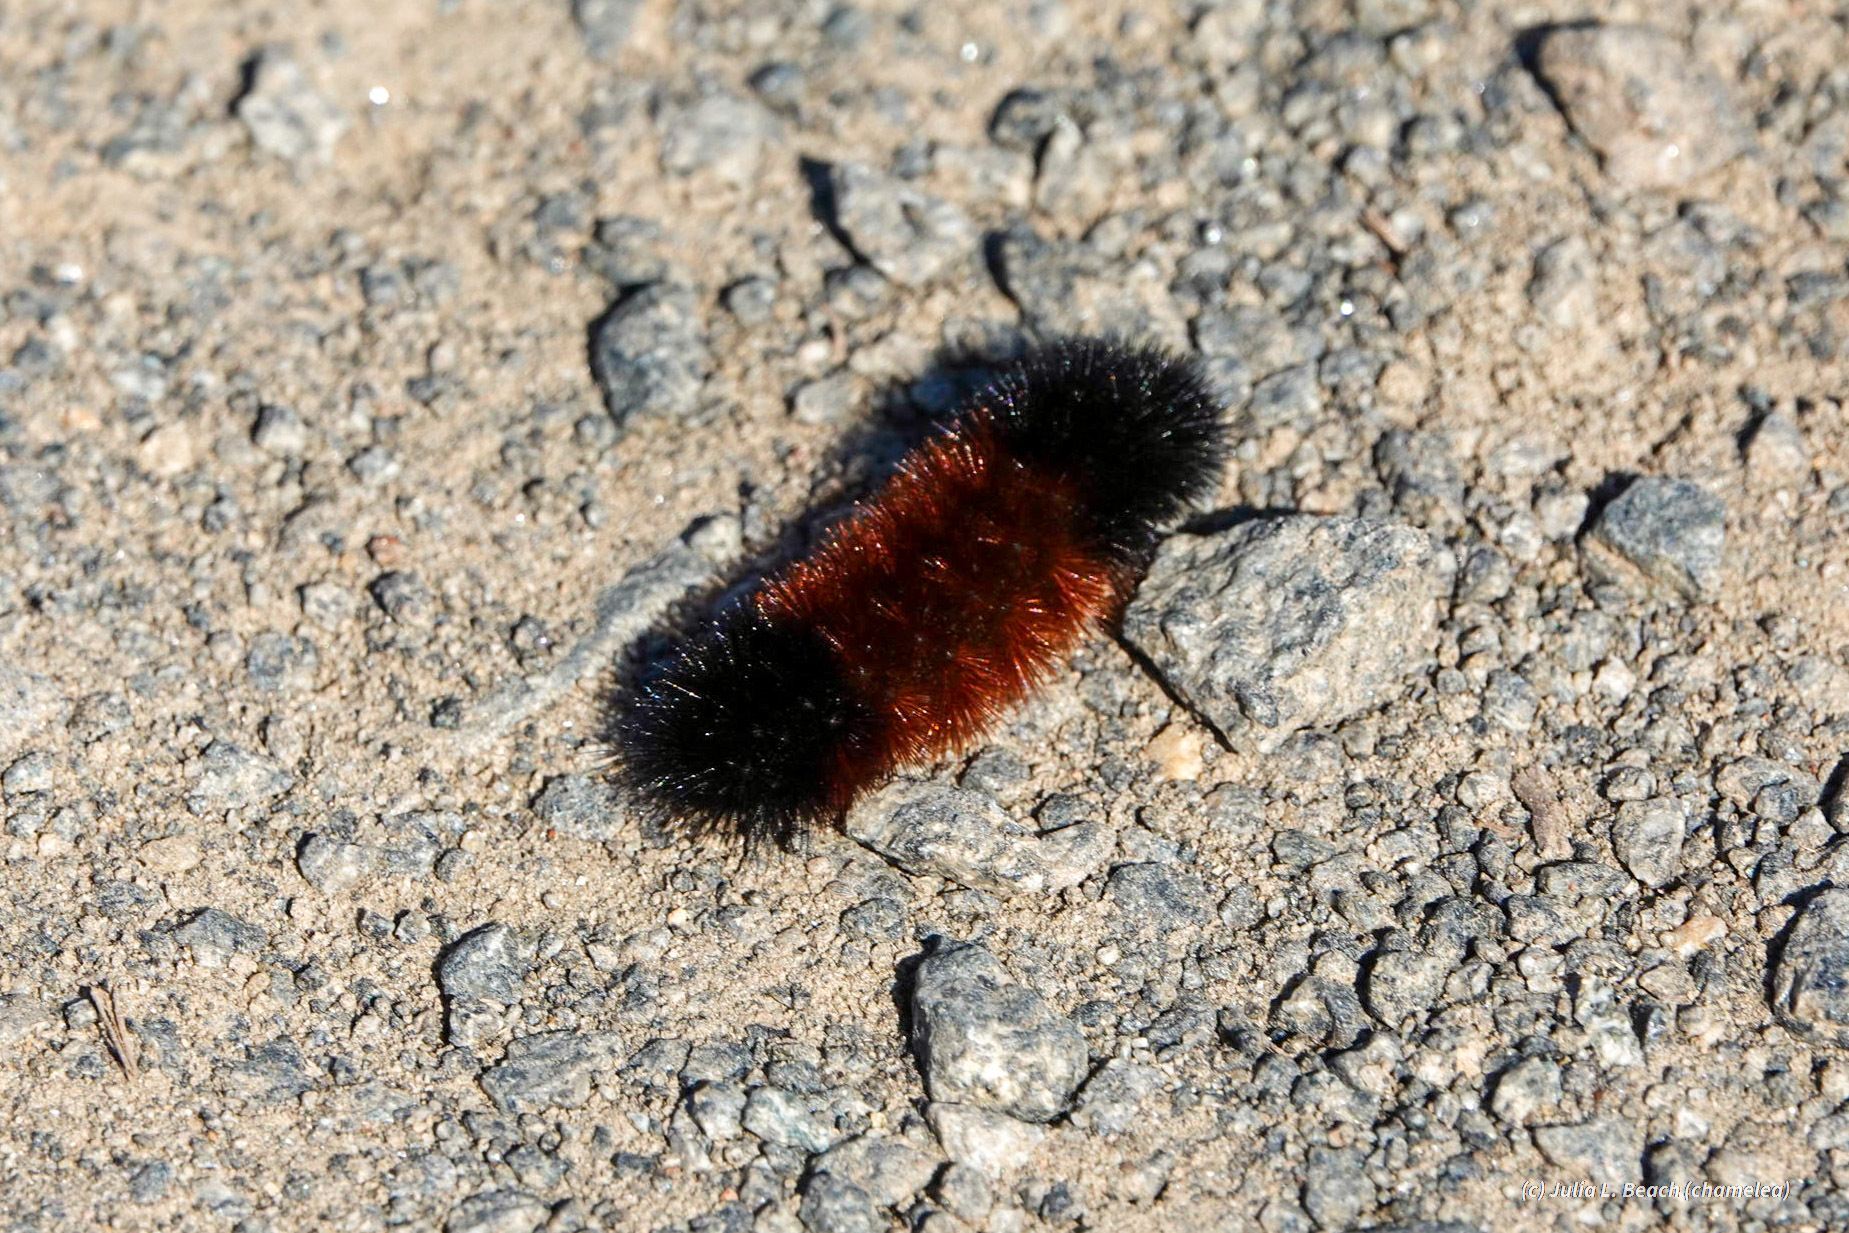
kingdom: Animalia
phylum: Arthropoda
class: Insecta
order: Lepidoptera
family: Erebidae
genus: Pyrrharctia
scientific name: Pyrrharctia isabella
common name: Isabella tiger moth
